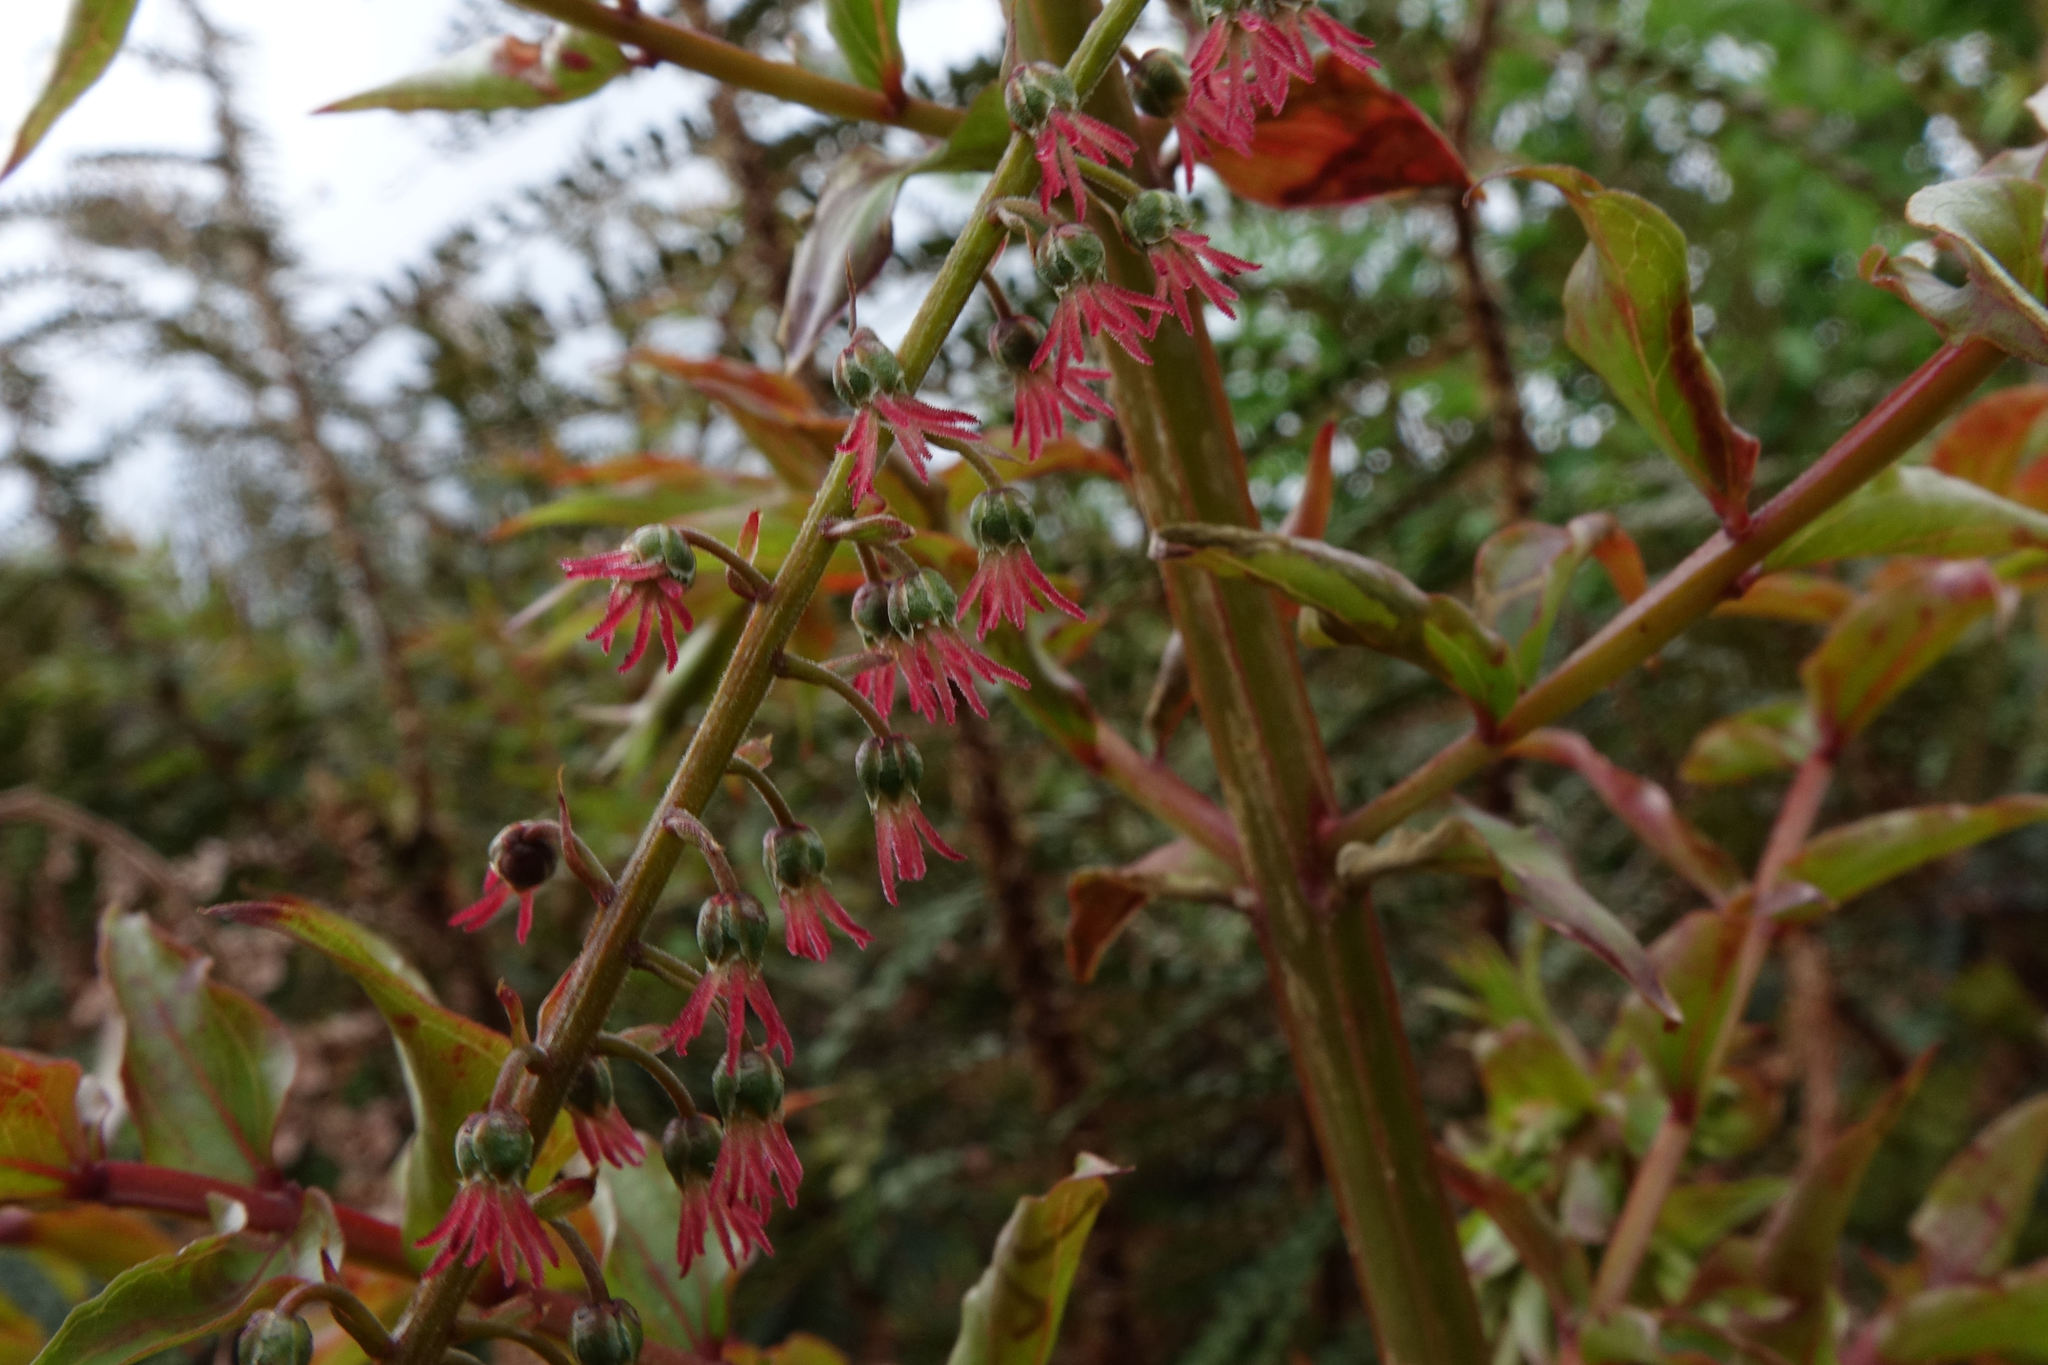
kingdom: Plantae
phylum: Tracheophyta
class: Magnoliopsida
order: Cucurbitales
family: Coriariaceae
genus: Coriaria
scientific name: Coriaria sarmentosa
